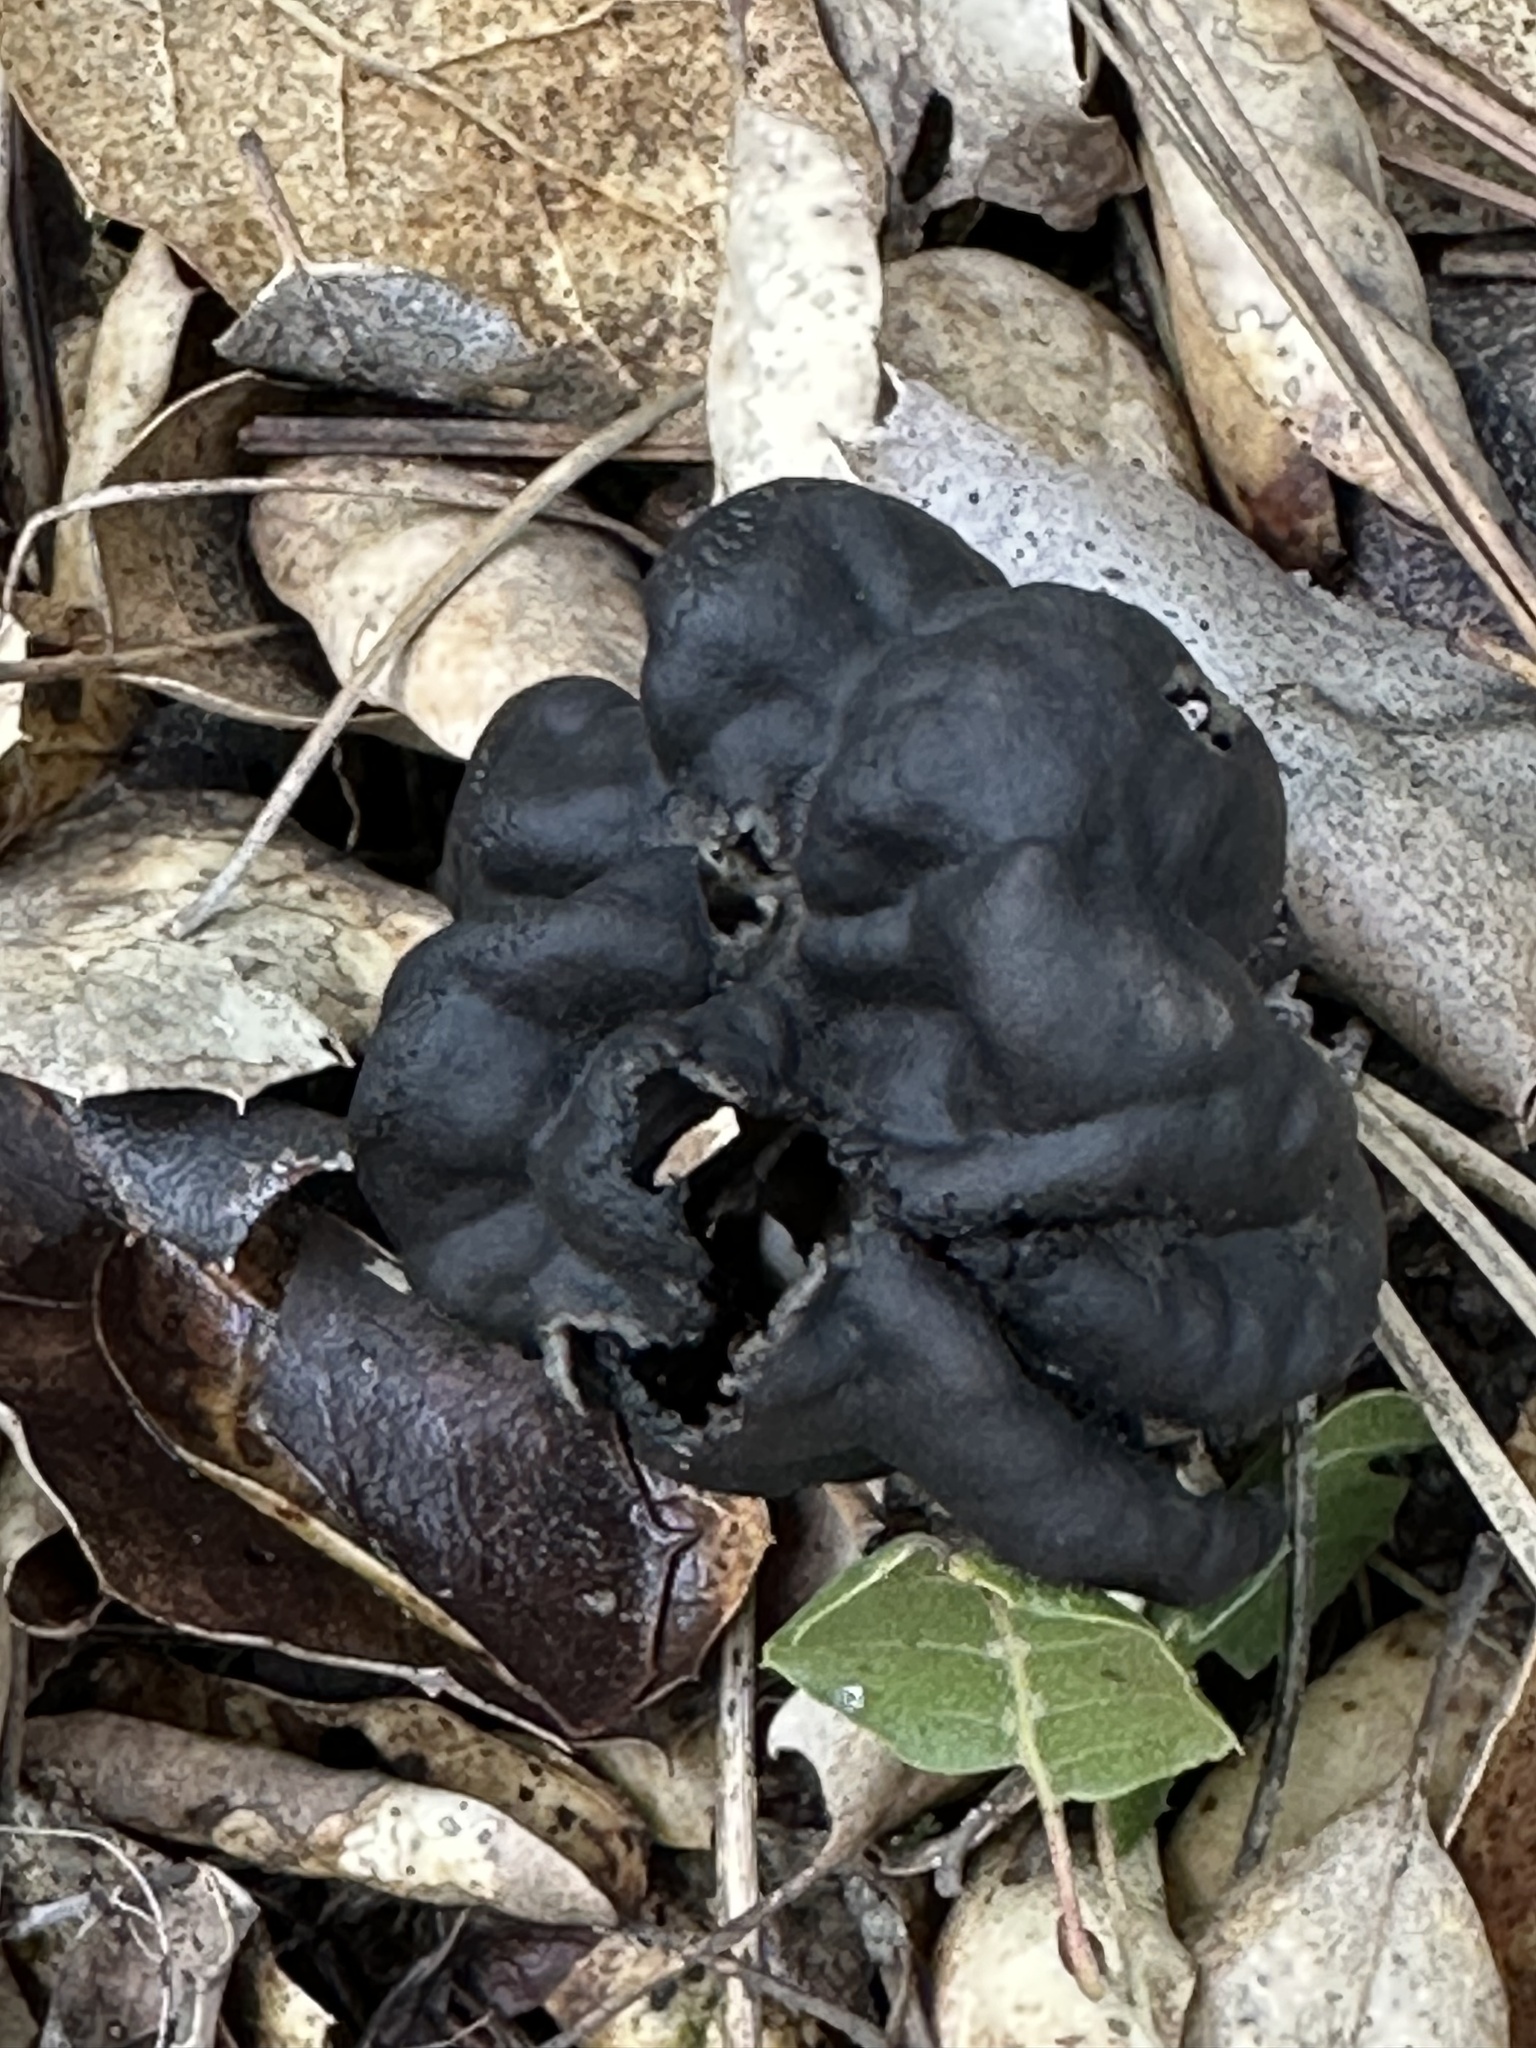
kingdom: Fungi
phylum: Ascomycota
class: Pezizomycetes
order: Pezizales
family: Helvellaceae
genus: Helvella
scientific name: Helvella dryophila
